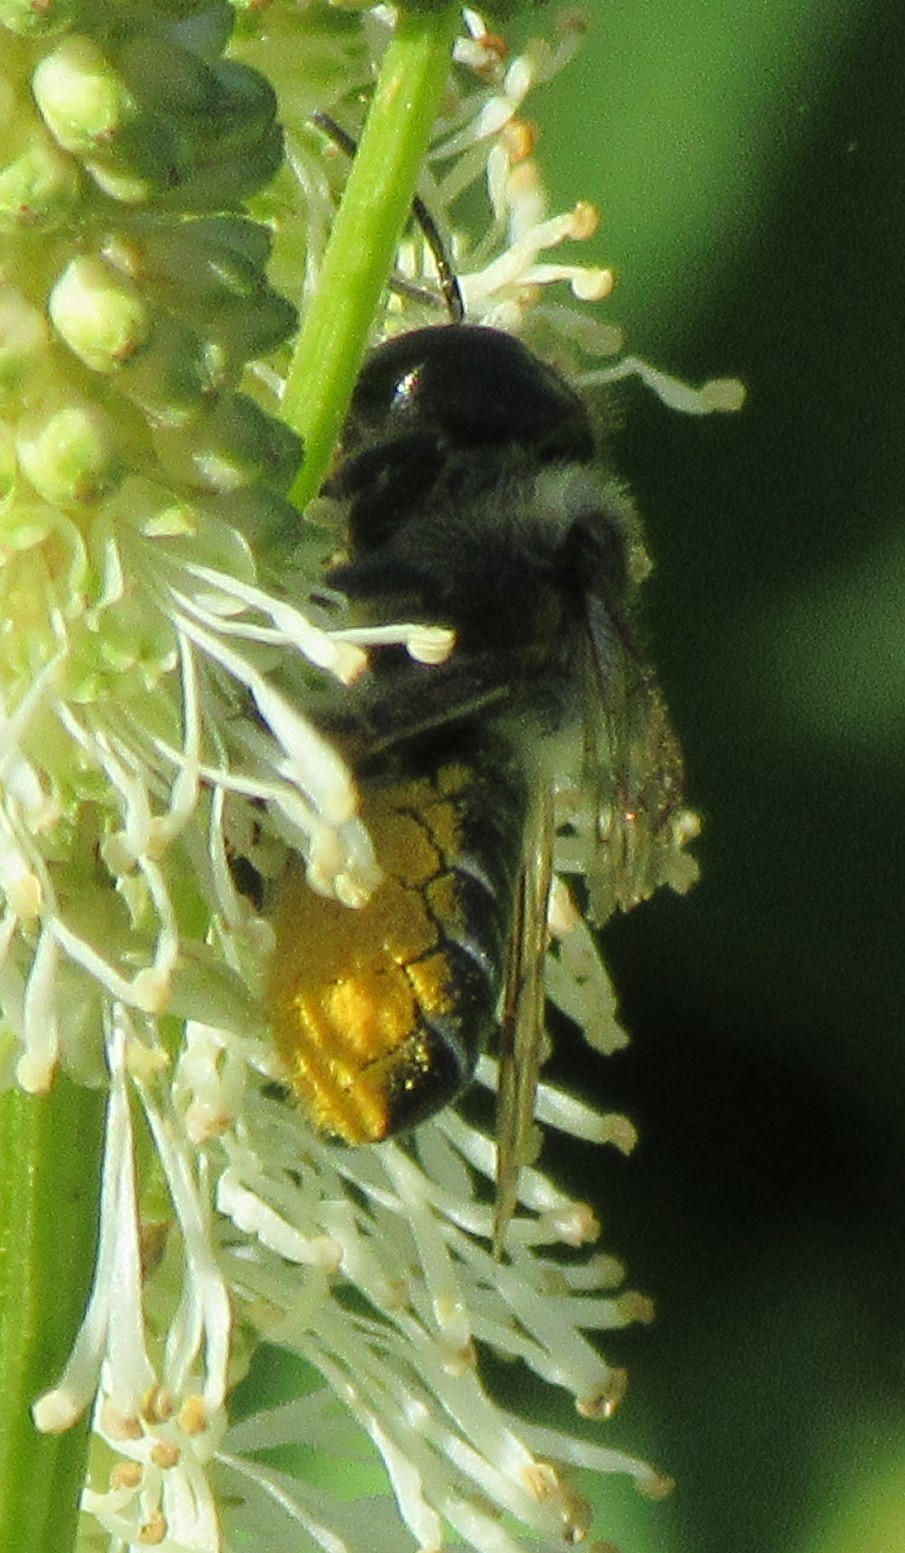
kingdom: Animalia
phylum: Arthropoda
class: Insecta
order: Hymenoptera
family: Megachilidae
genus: Megachile
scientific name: Megachile inermis
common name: Unarmed leafcutter bee
